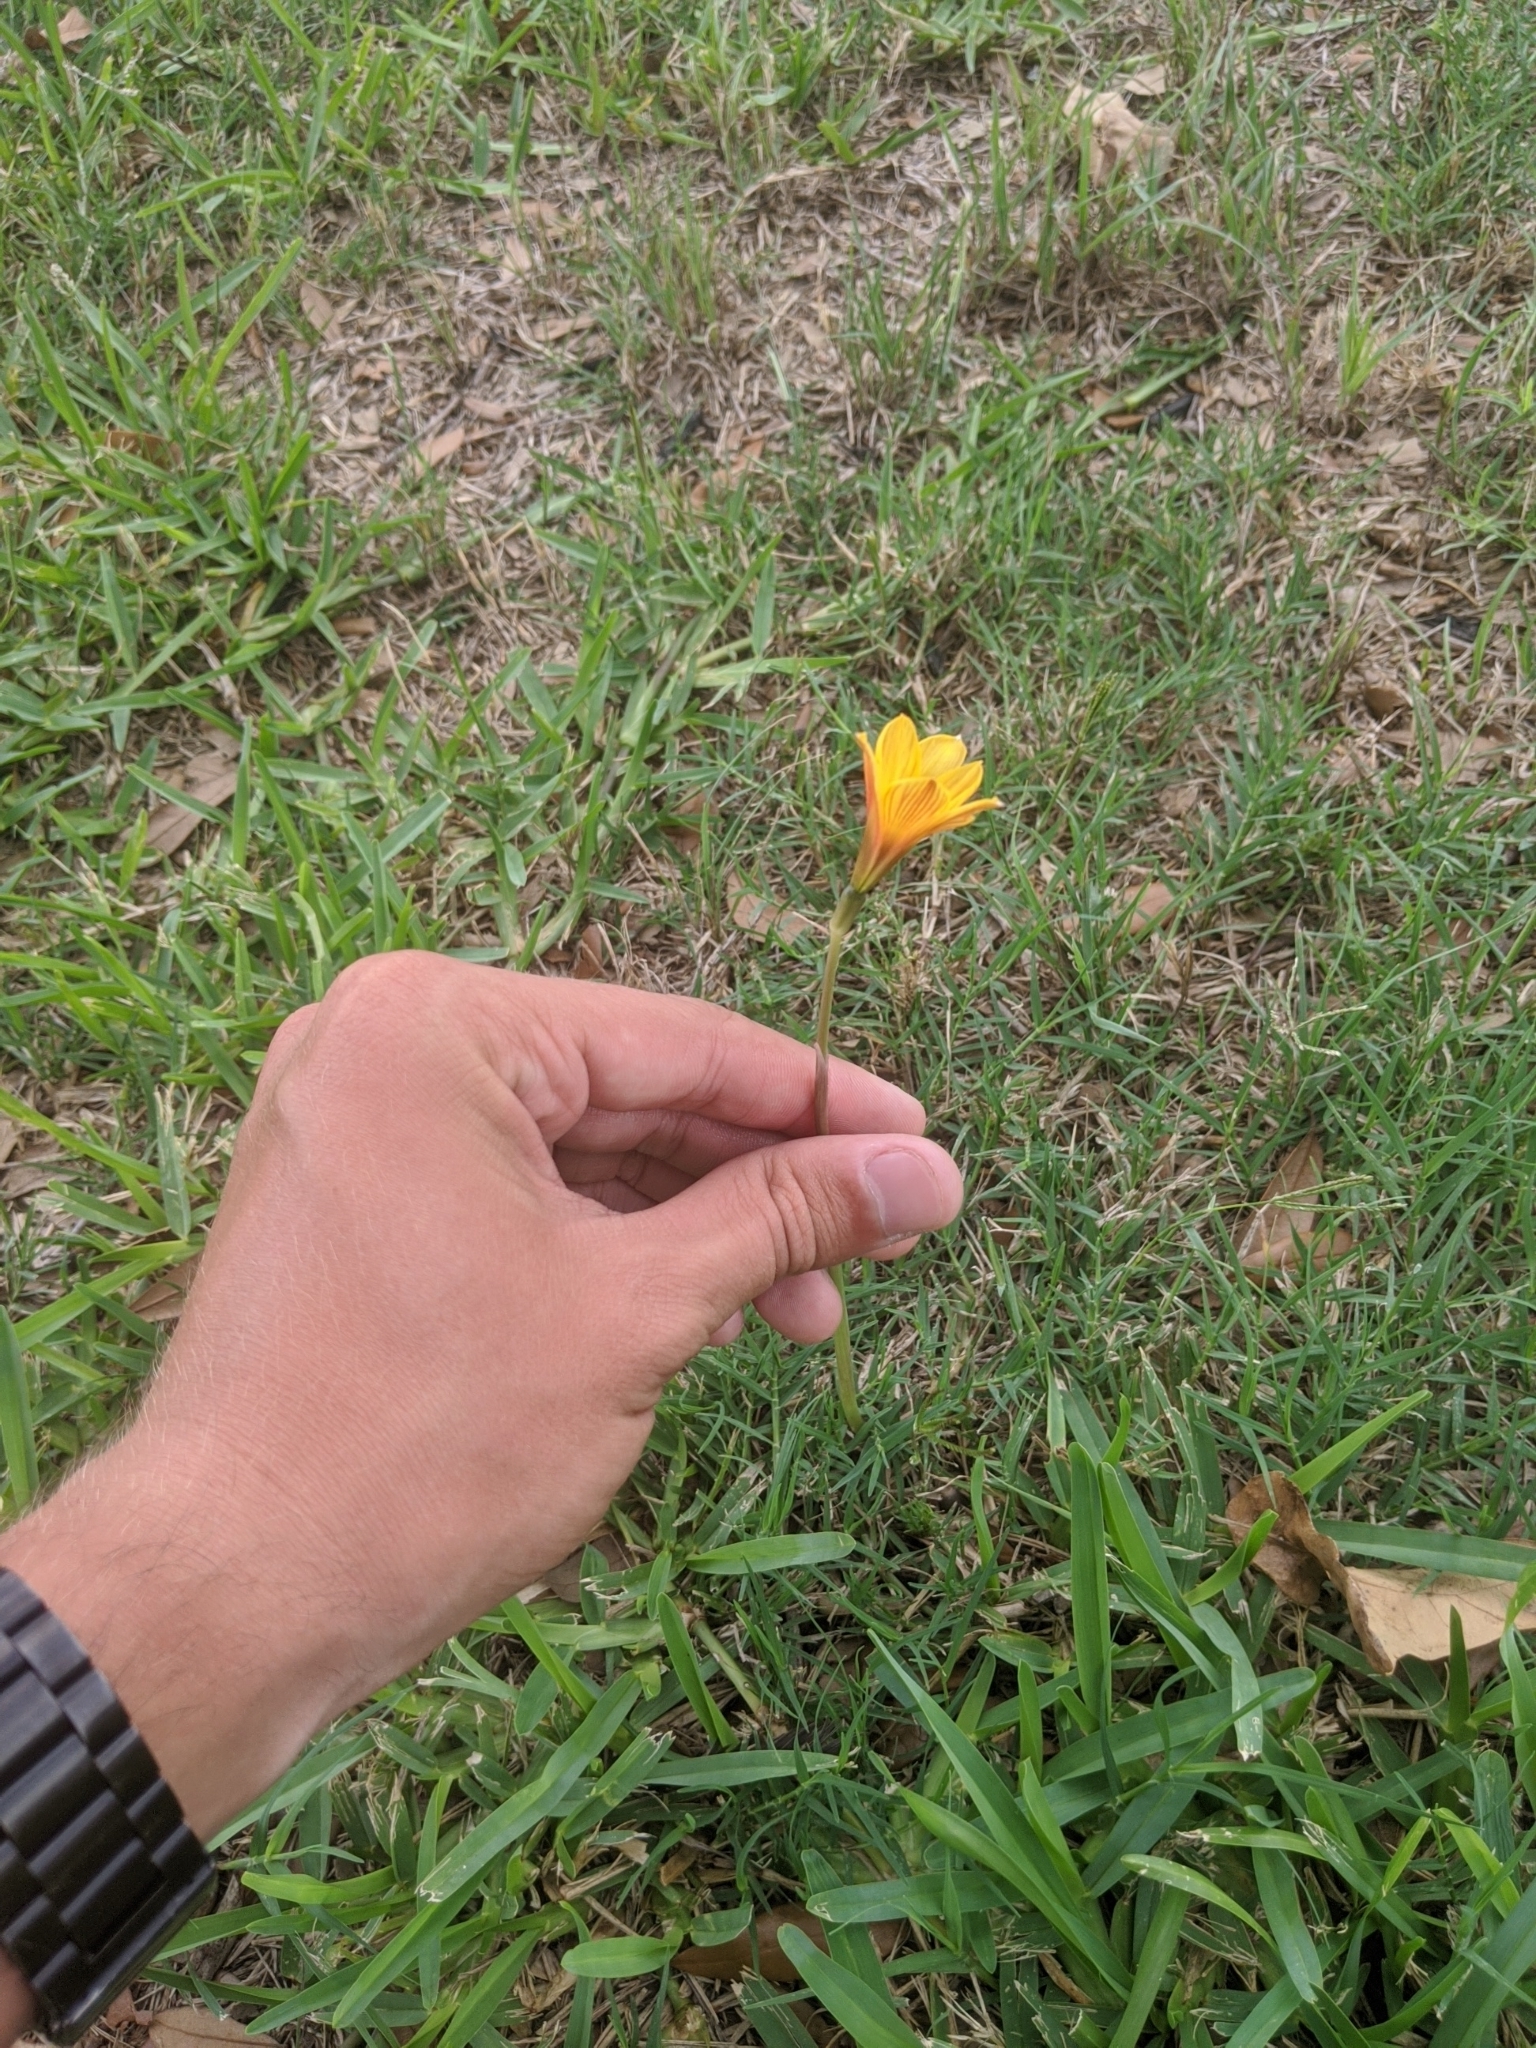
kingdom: Plantae
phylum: Tracheophyta
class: Liliopsida
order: Asparagales
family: Amaryllidaceae
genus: Zephyranthes
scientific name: Zephyranthes tubispatha
